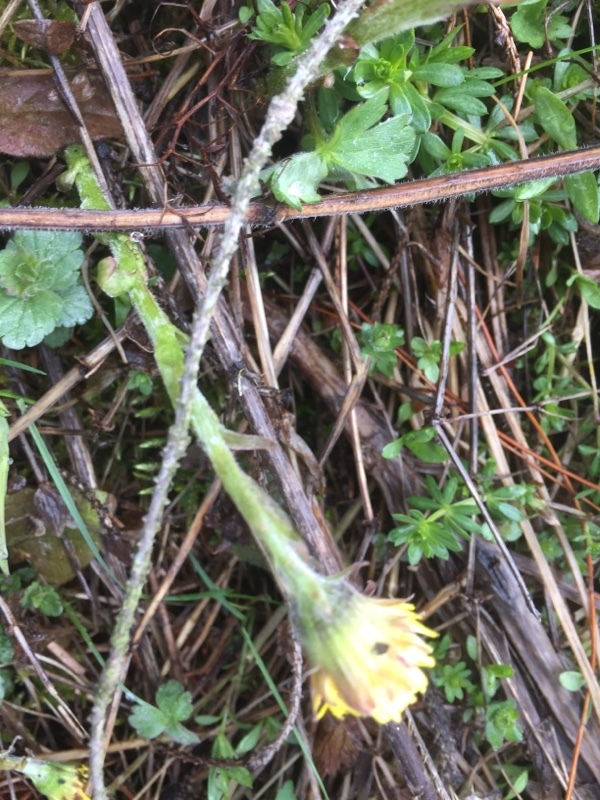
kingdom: Plantae
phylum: Tracheophyta
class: Magnoliopsida
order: Asterales
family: Asteraceae
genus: Tussilago
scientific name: Tussilago farfara
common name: Coltsfoot
